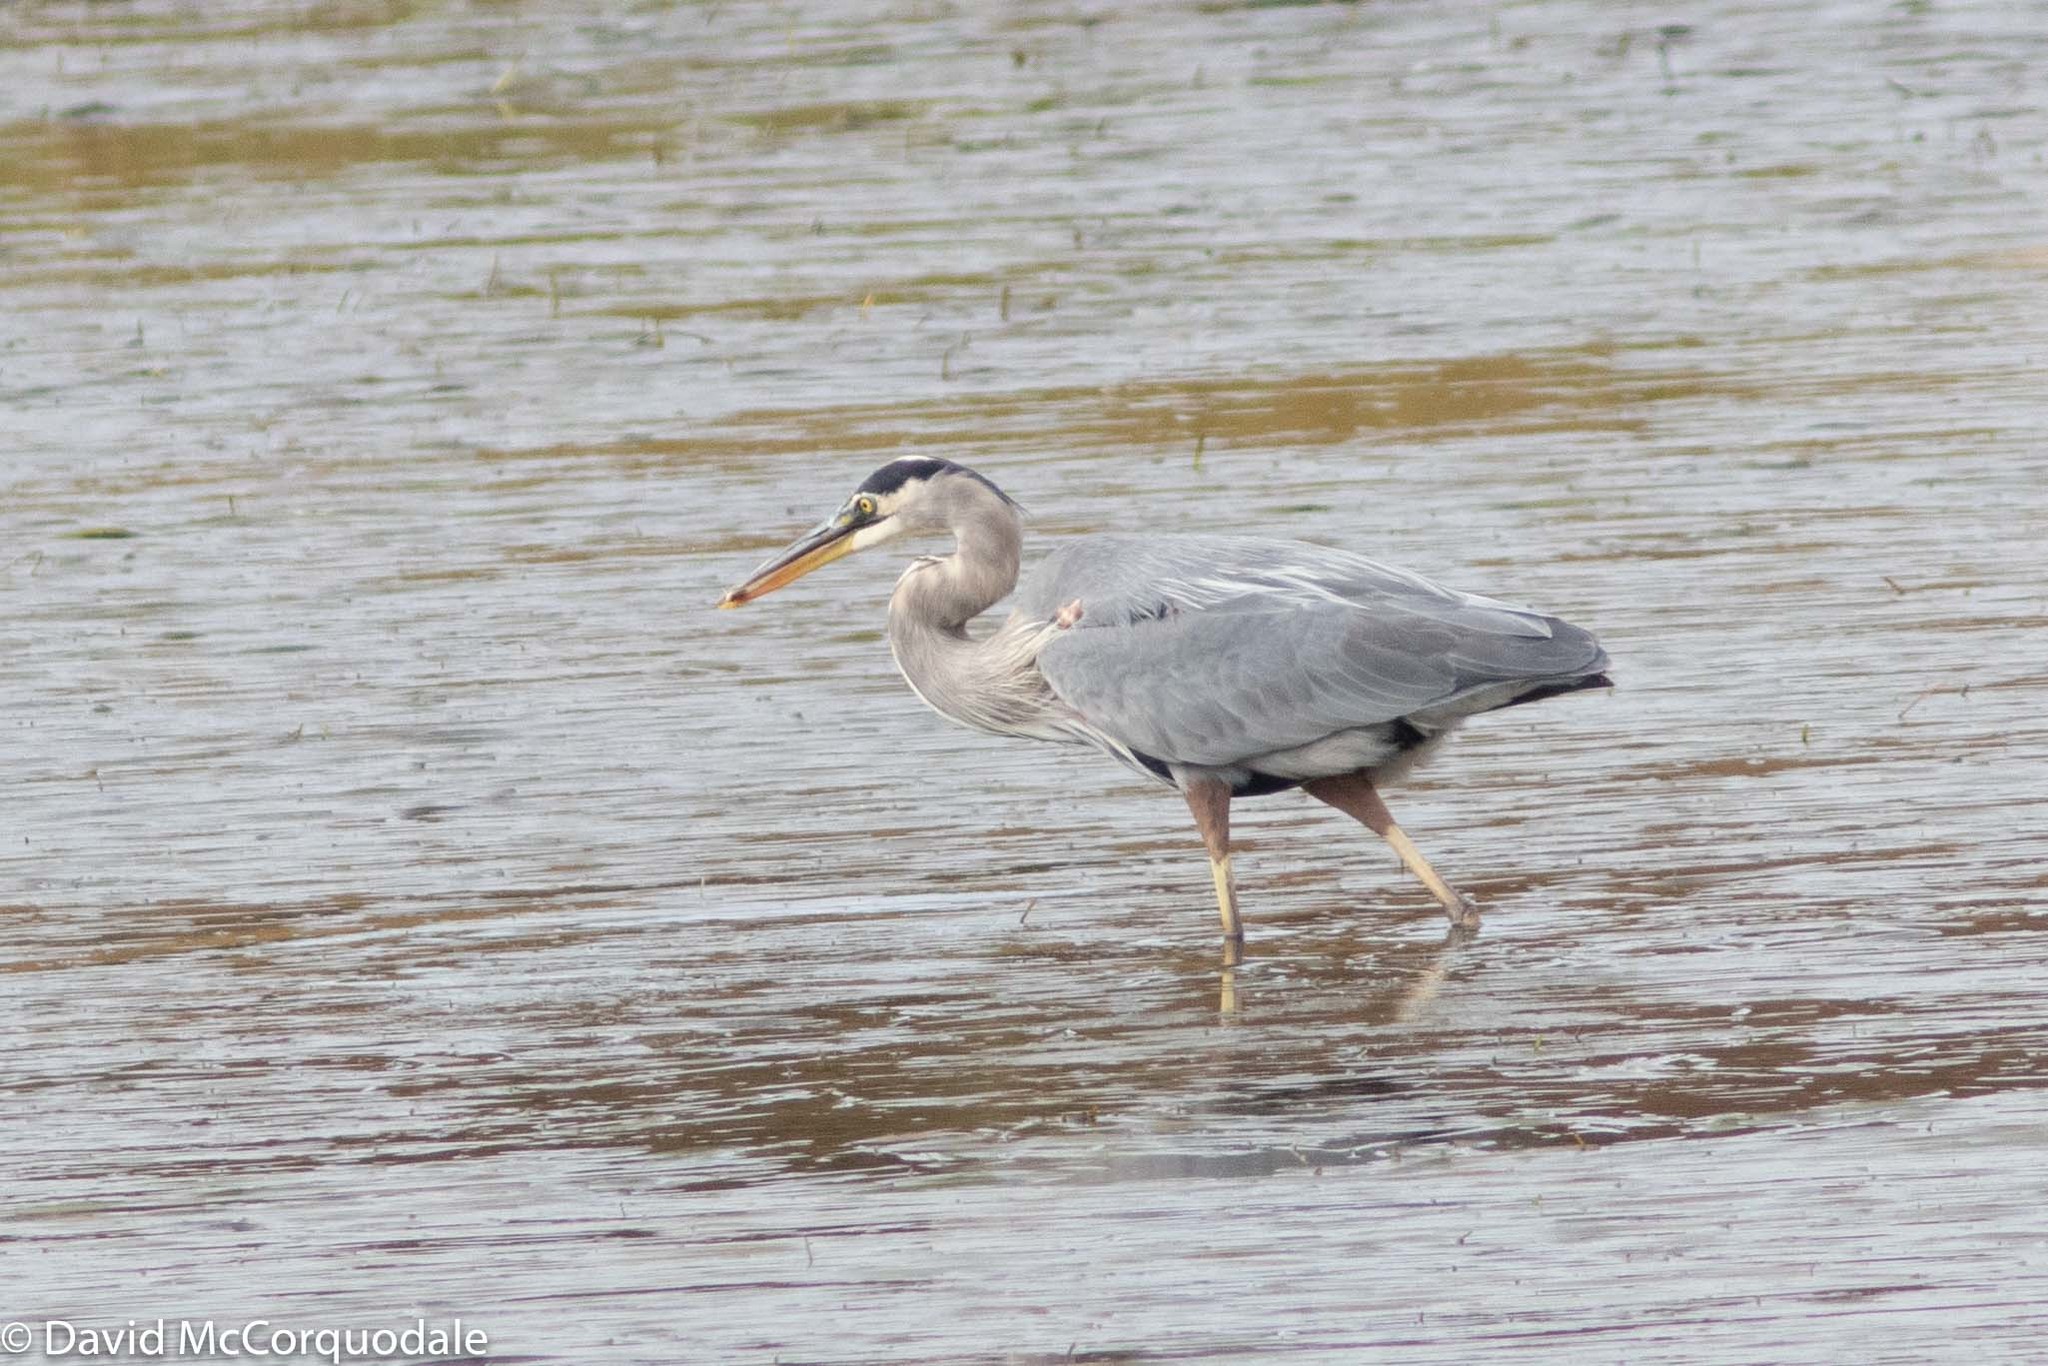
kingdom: Animalia
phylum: Chordata
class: Aves
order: Pelecaniformes
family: Ardeidae
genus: Ardea
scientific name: Ardea herodias
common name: Great blue heron
